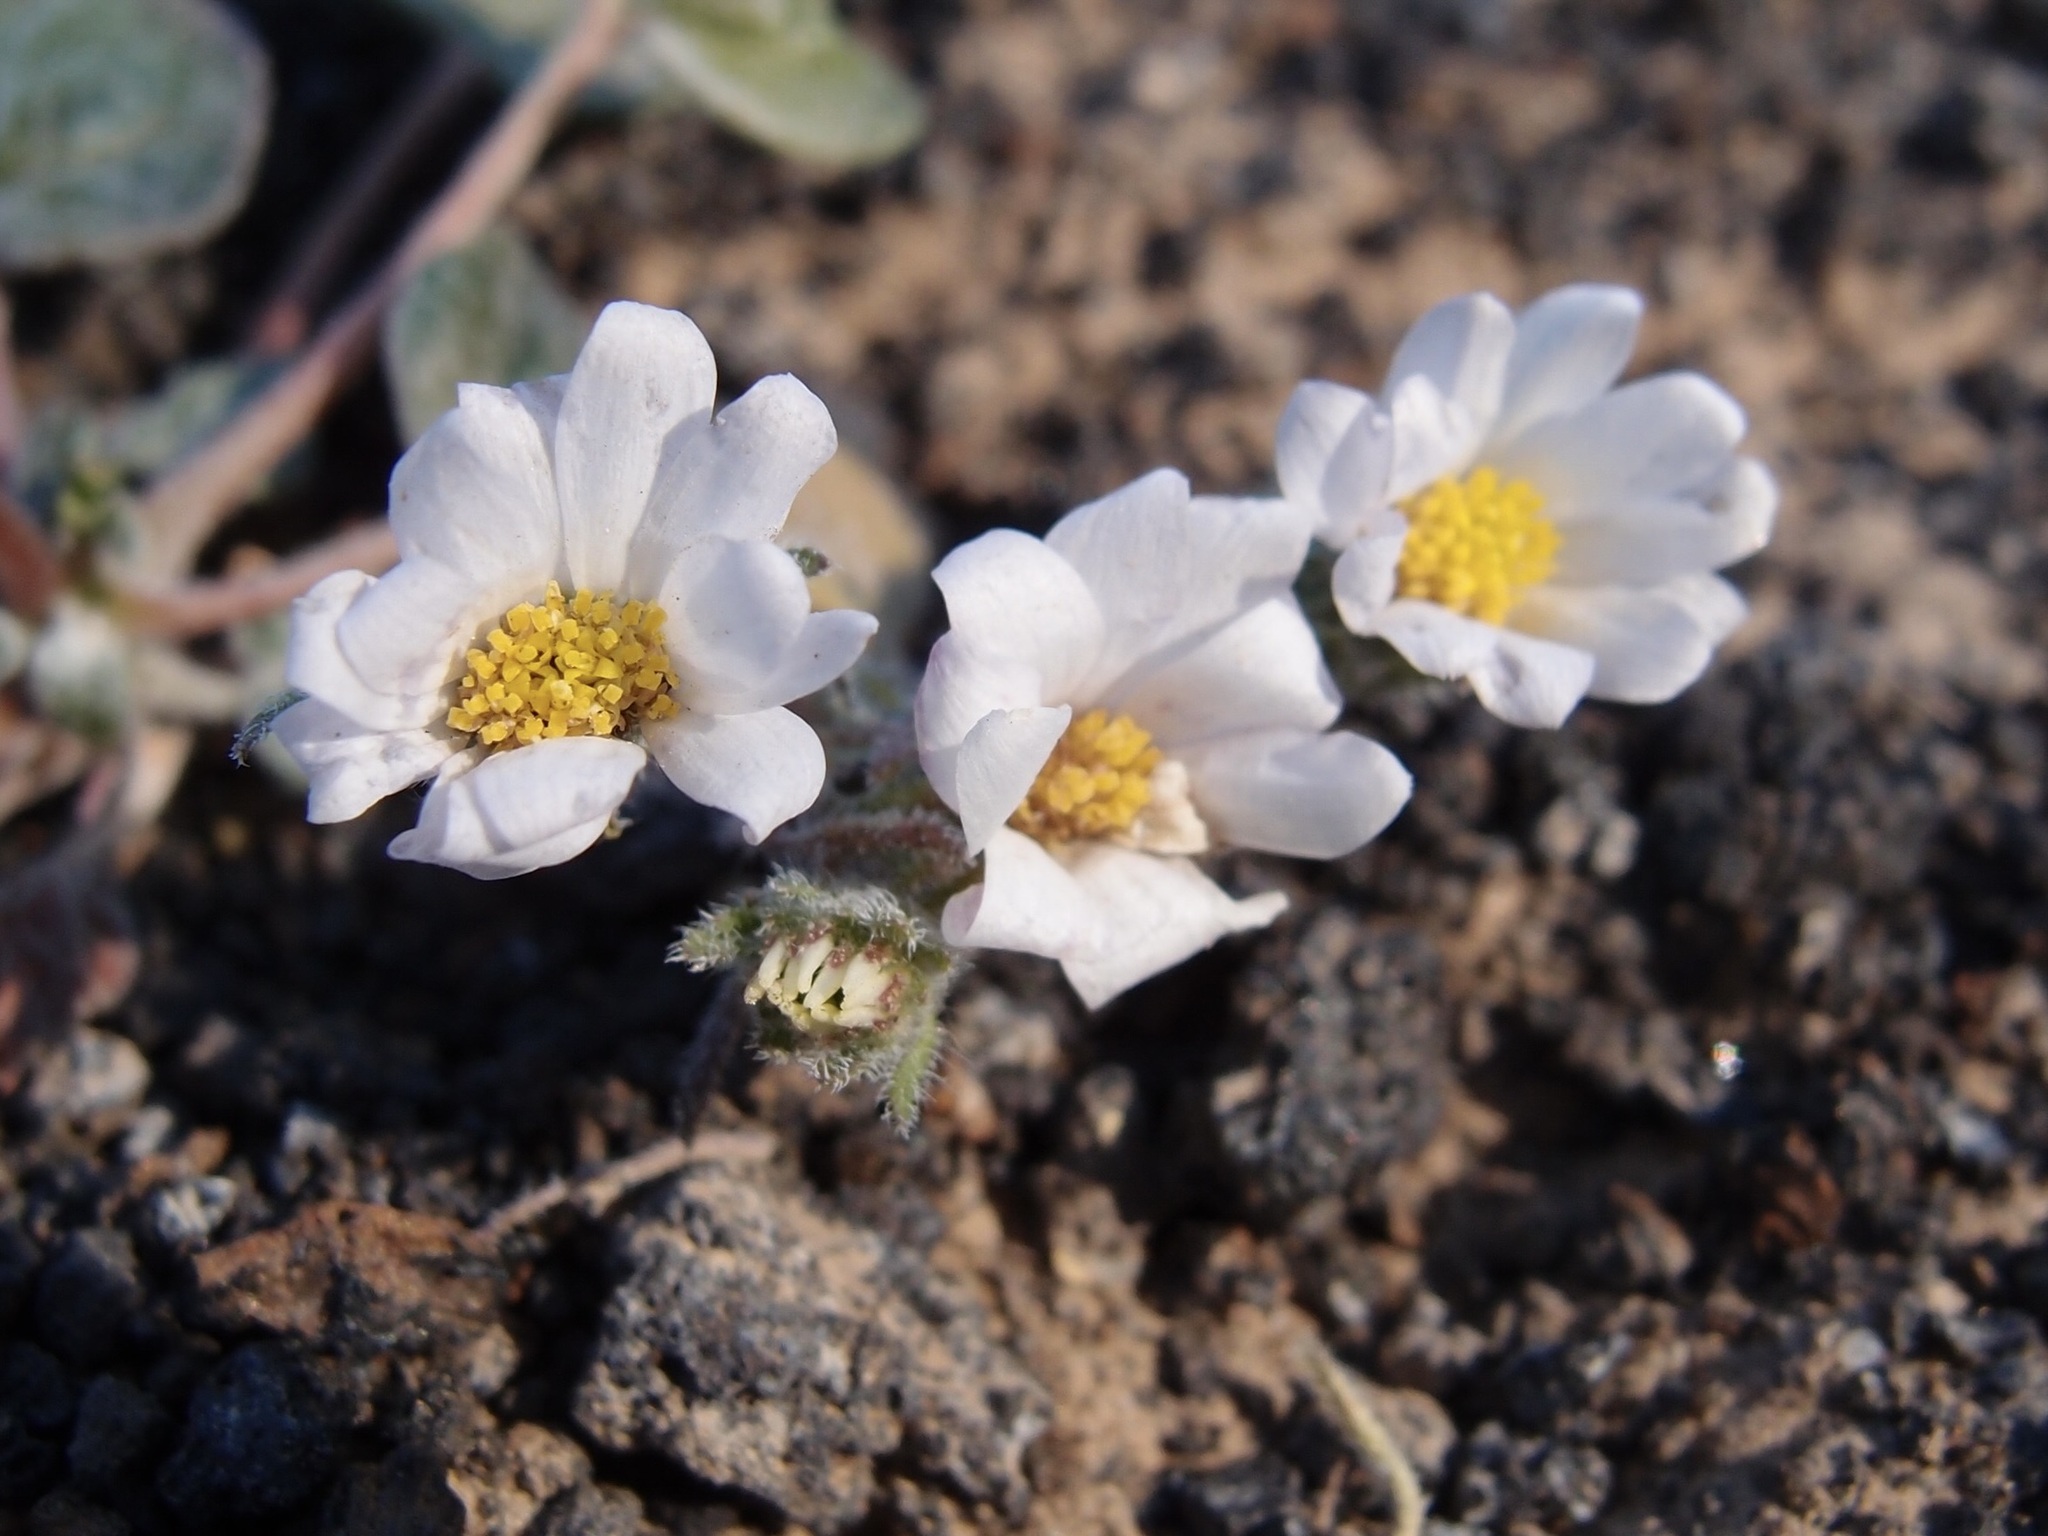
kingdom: Plantae
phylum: Tracheophyta
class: Magnoliopsida
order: Asterales
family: Asteraceae
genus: Monoptilon
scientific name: Monoptilon bellioides
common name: Bristly desertstar
